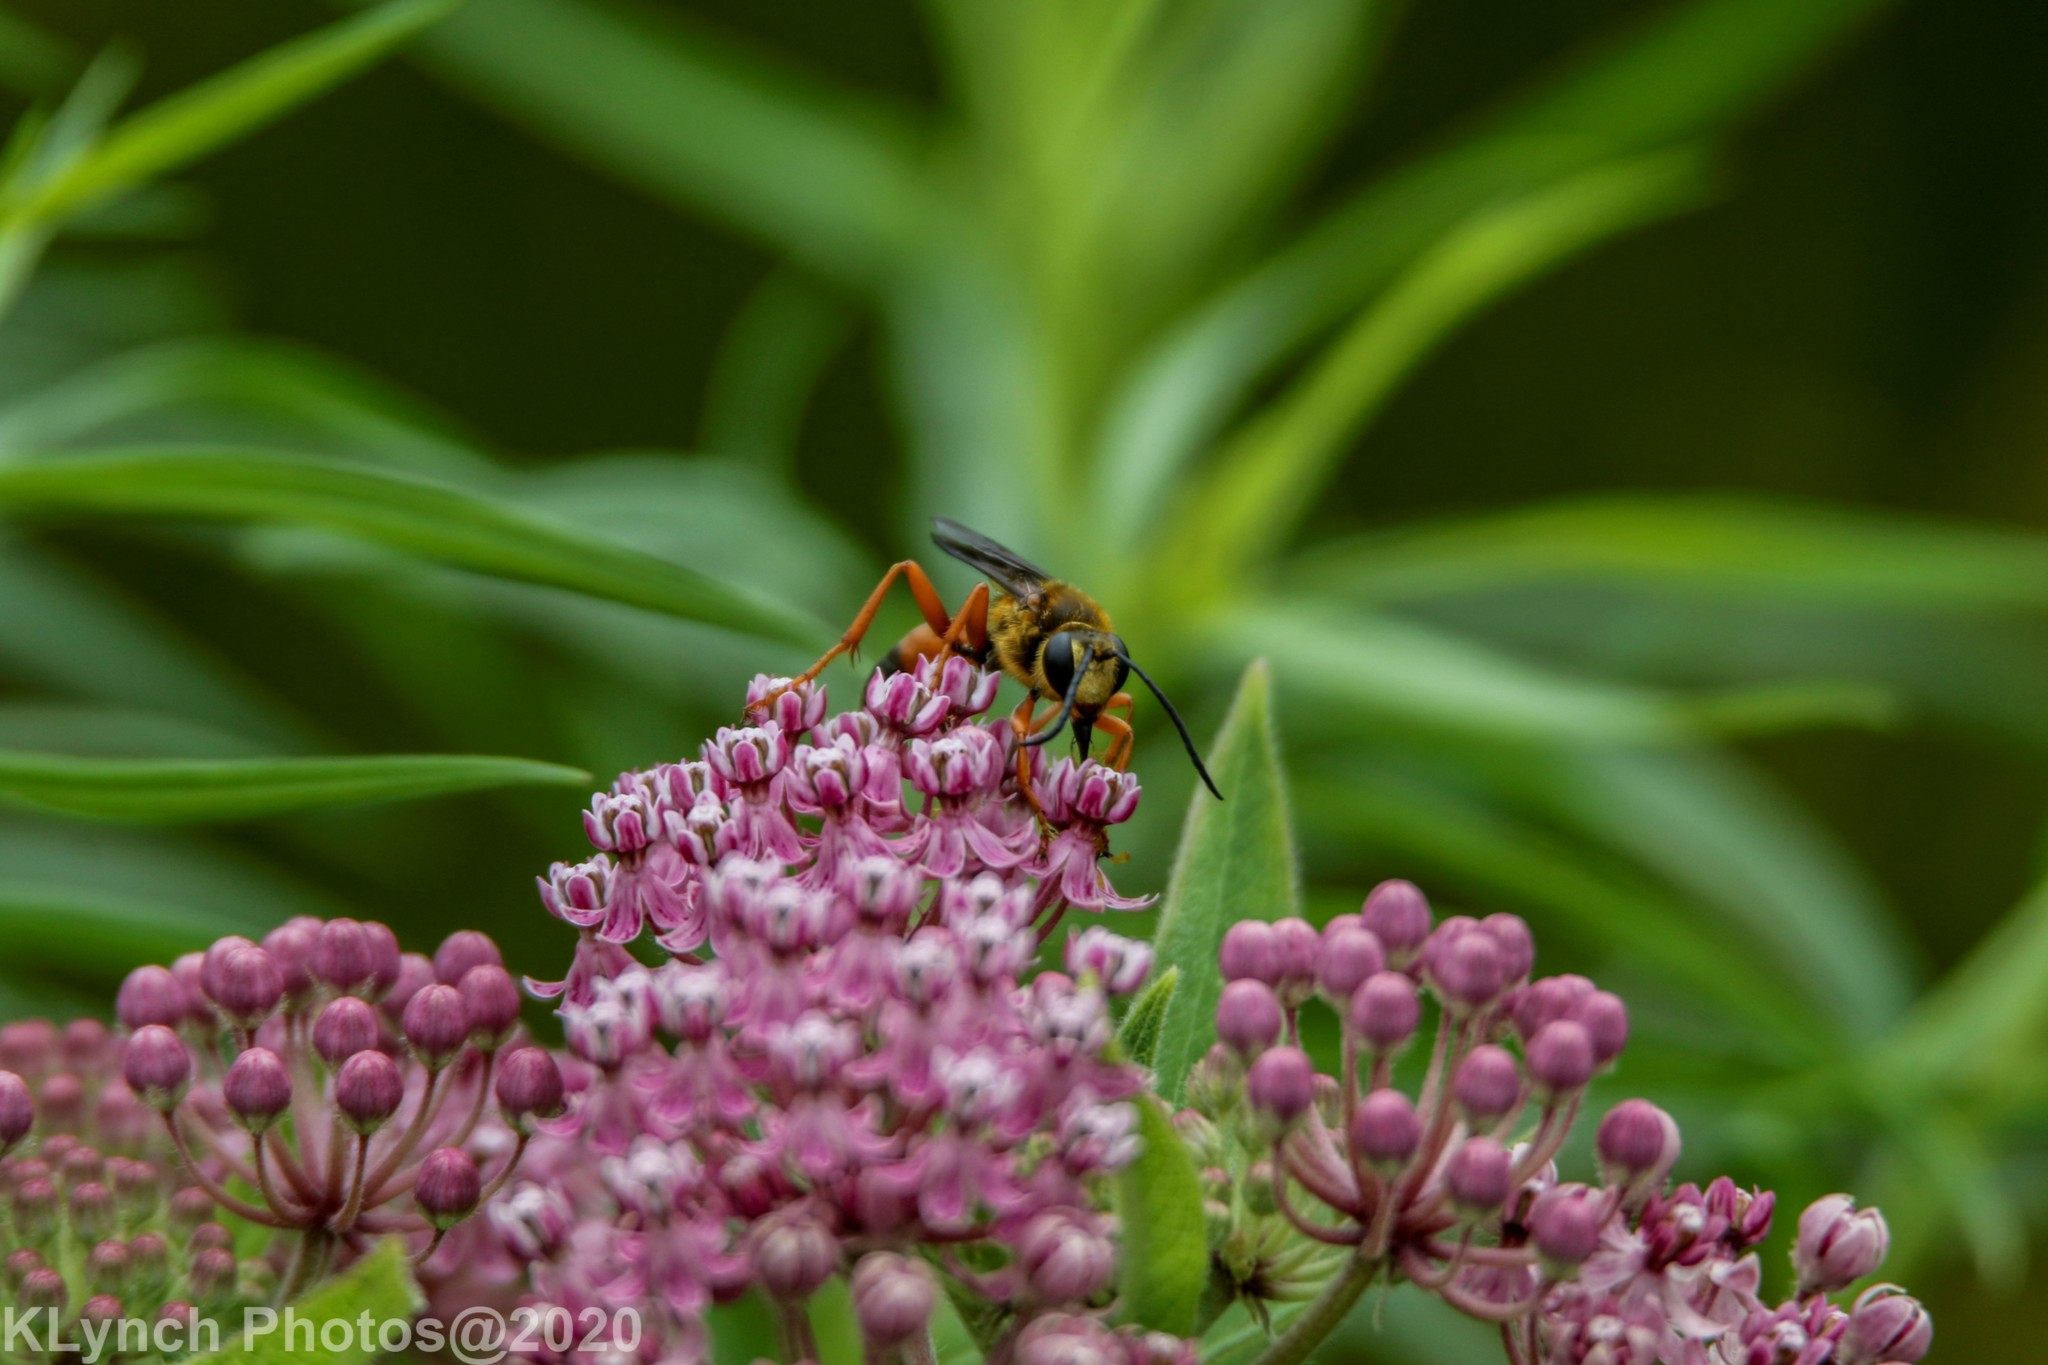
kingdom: Animalia
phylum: Arthropoda
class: Insecta
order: Hymenoptera
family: Sphecidae
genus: Sphex
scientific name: Sphex ichneumoneus
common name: Great golden digger wasp
